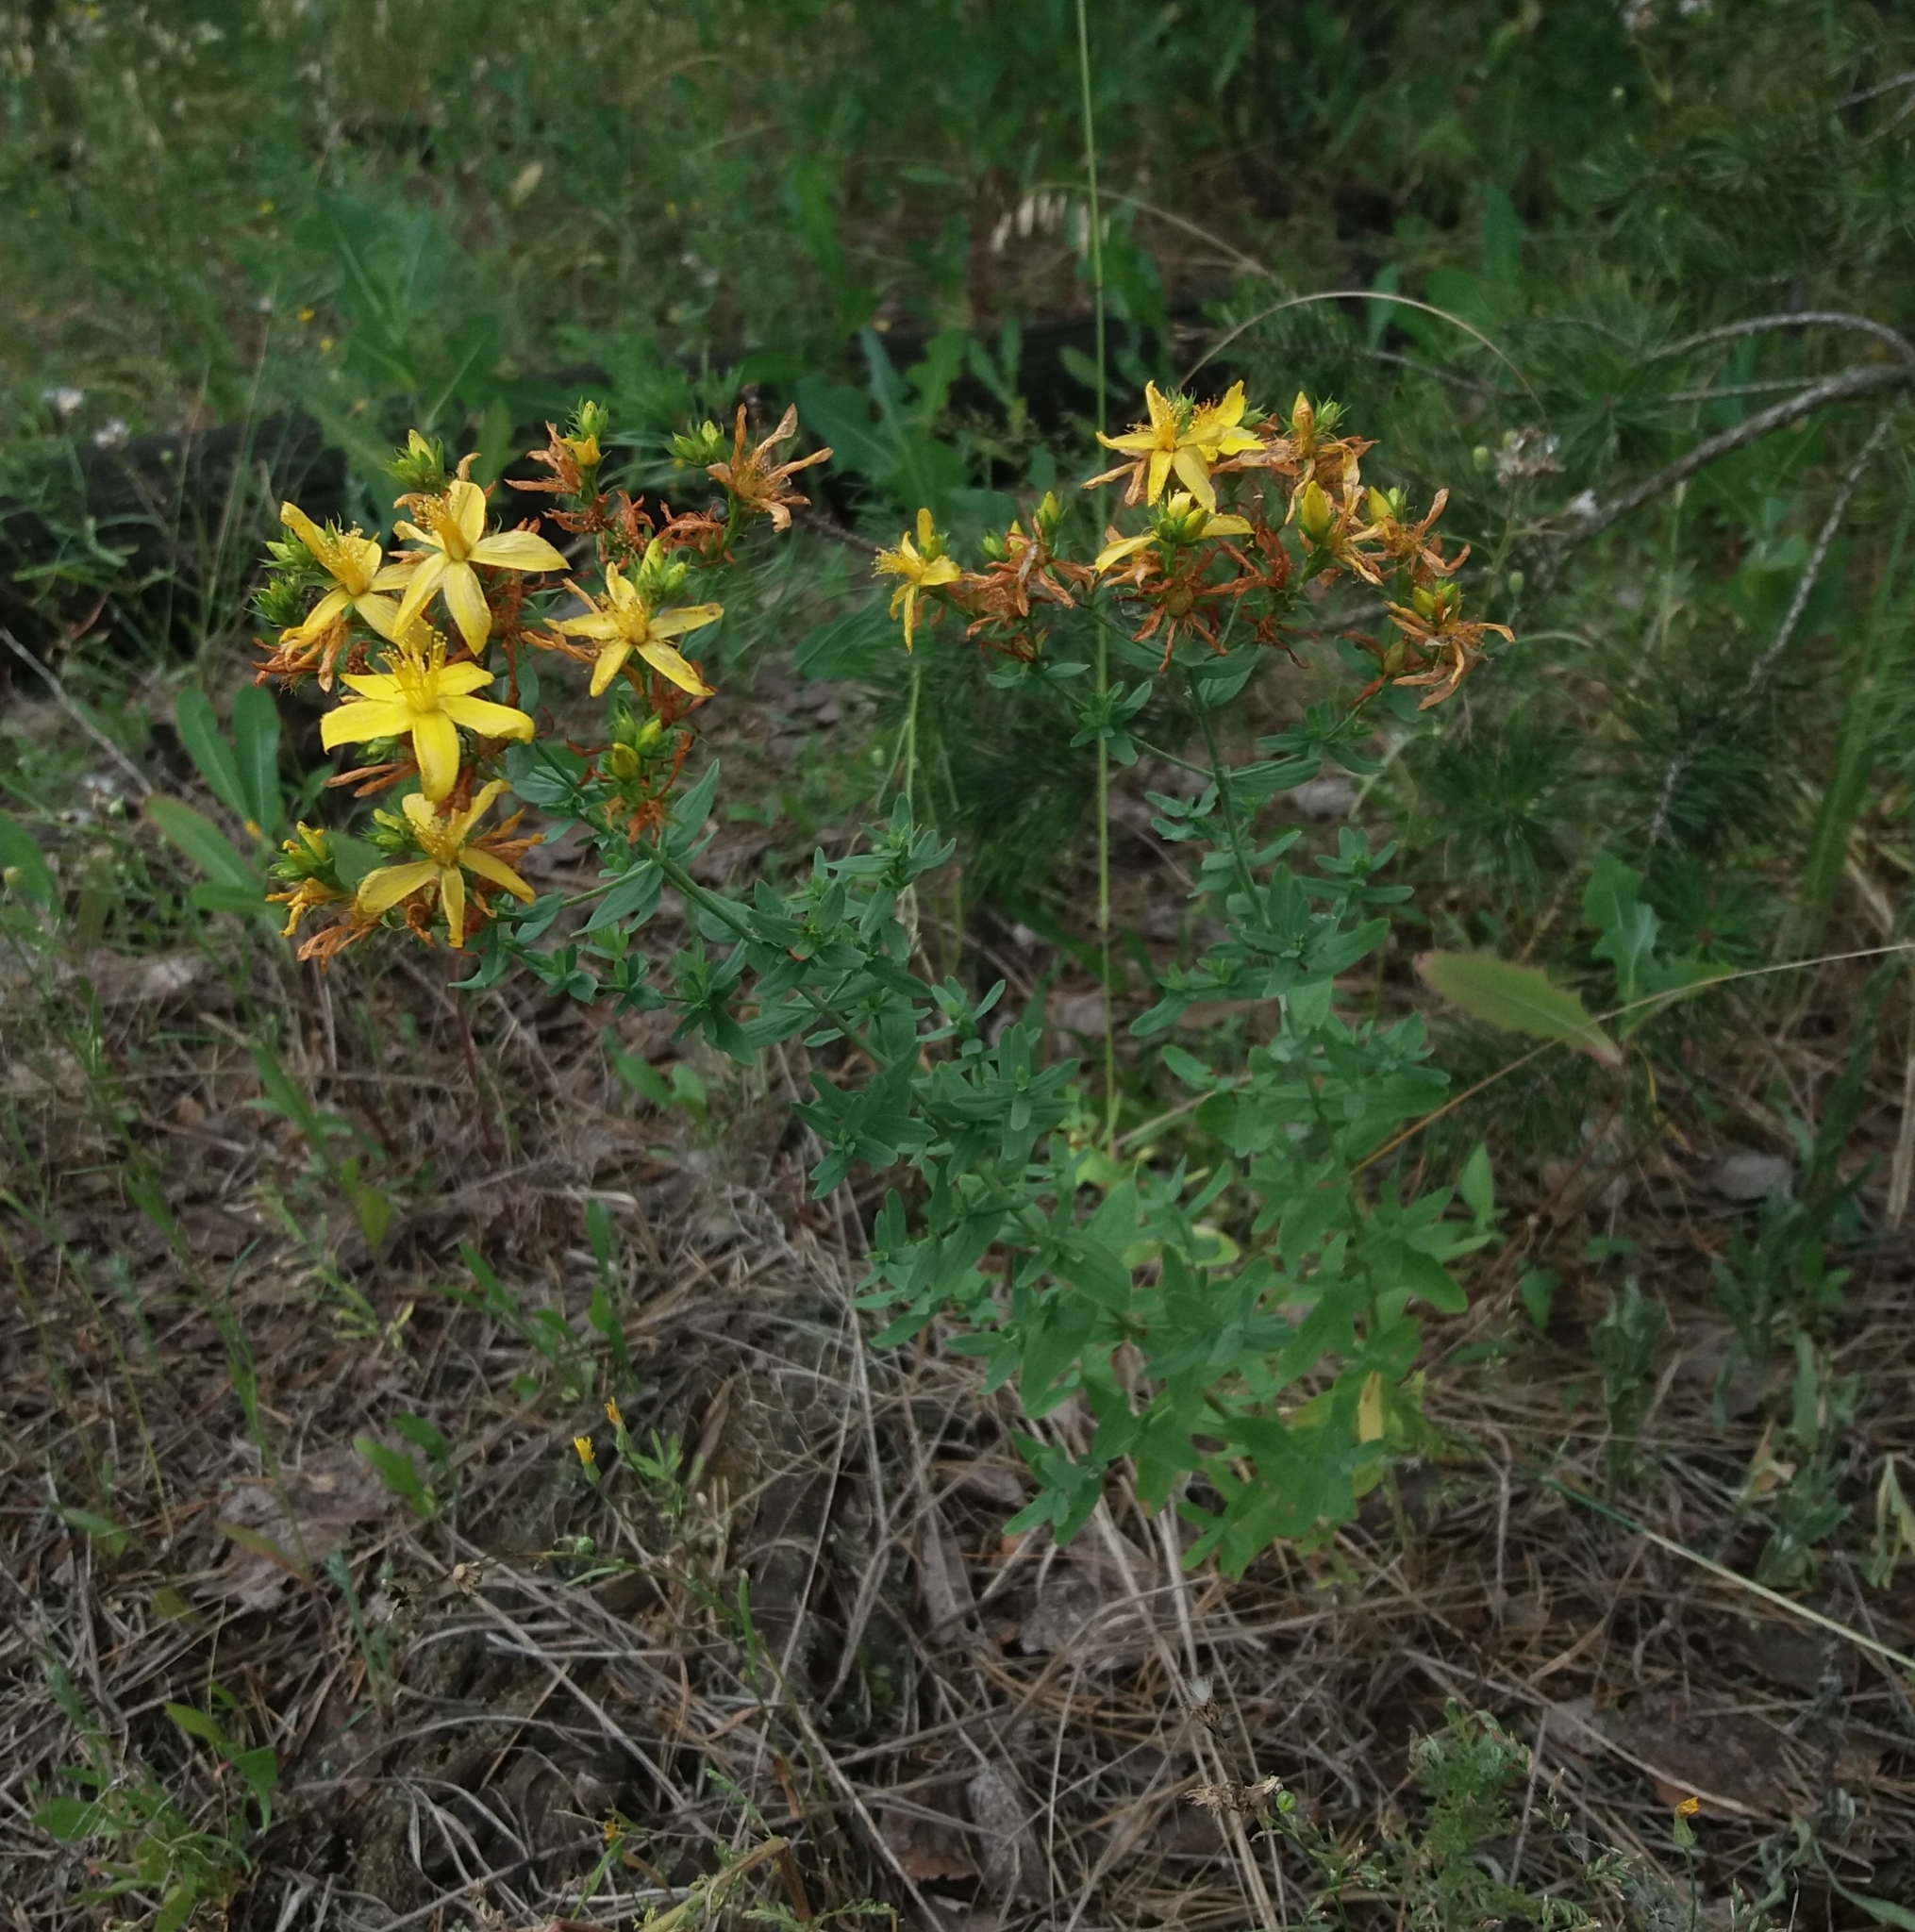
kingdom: Plantae
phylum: Tracheophyta
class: Magnoliopsida
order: Malpighiales
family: Hypericaceae
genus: Hypericum
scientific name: Hypericum perforatum
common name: Common st. johnswort
